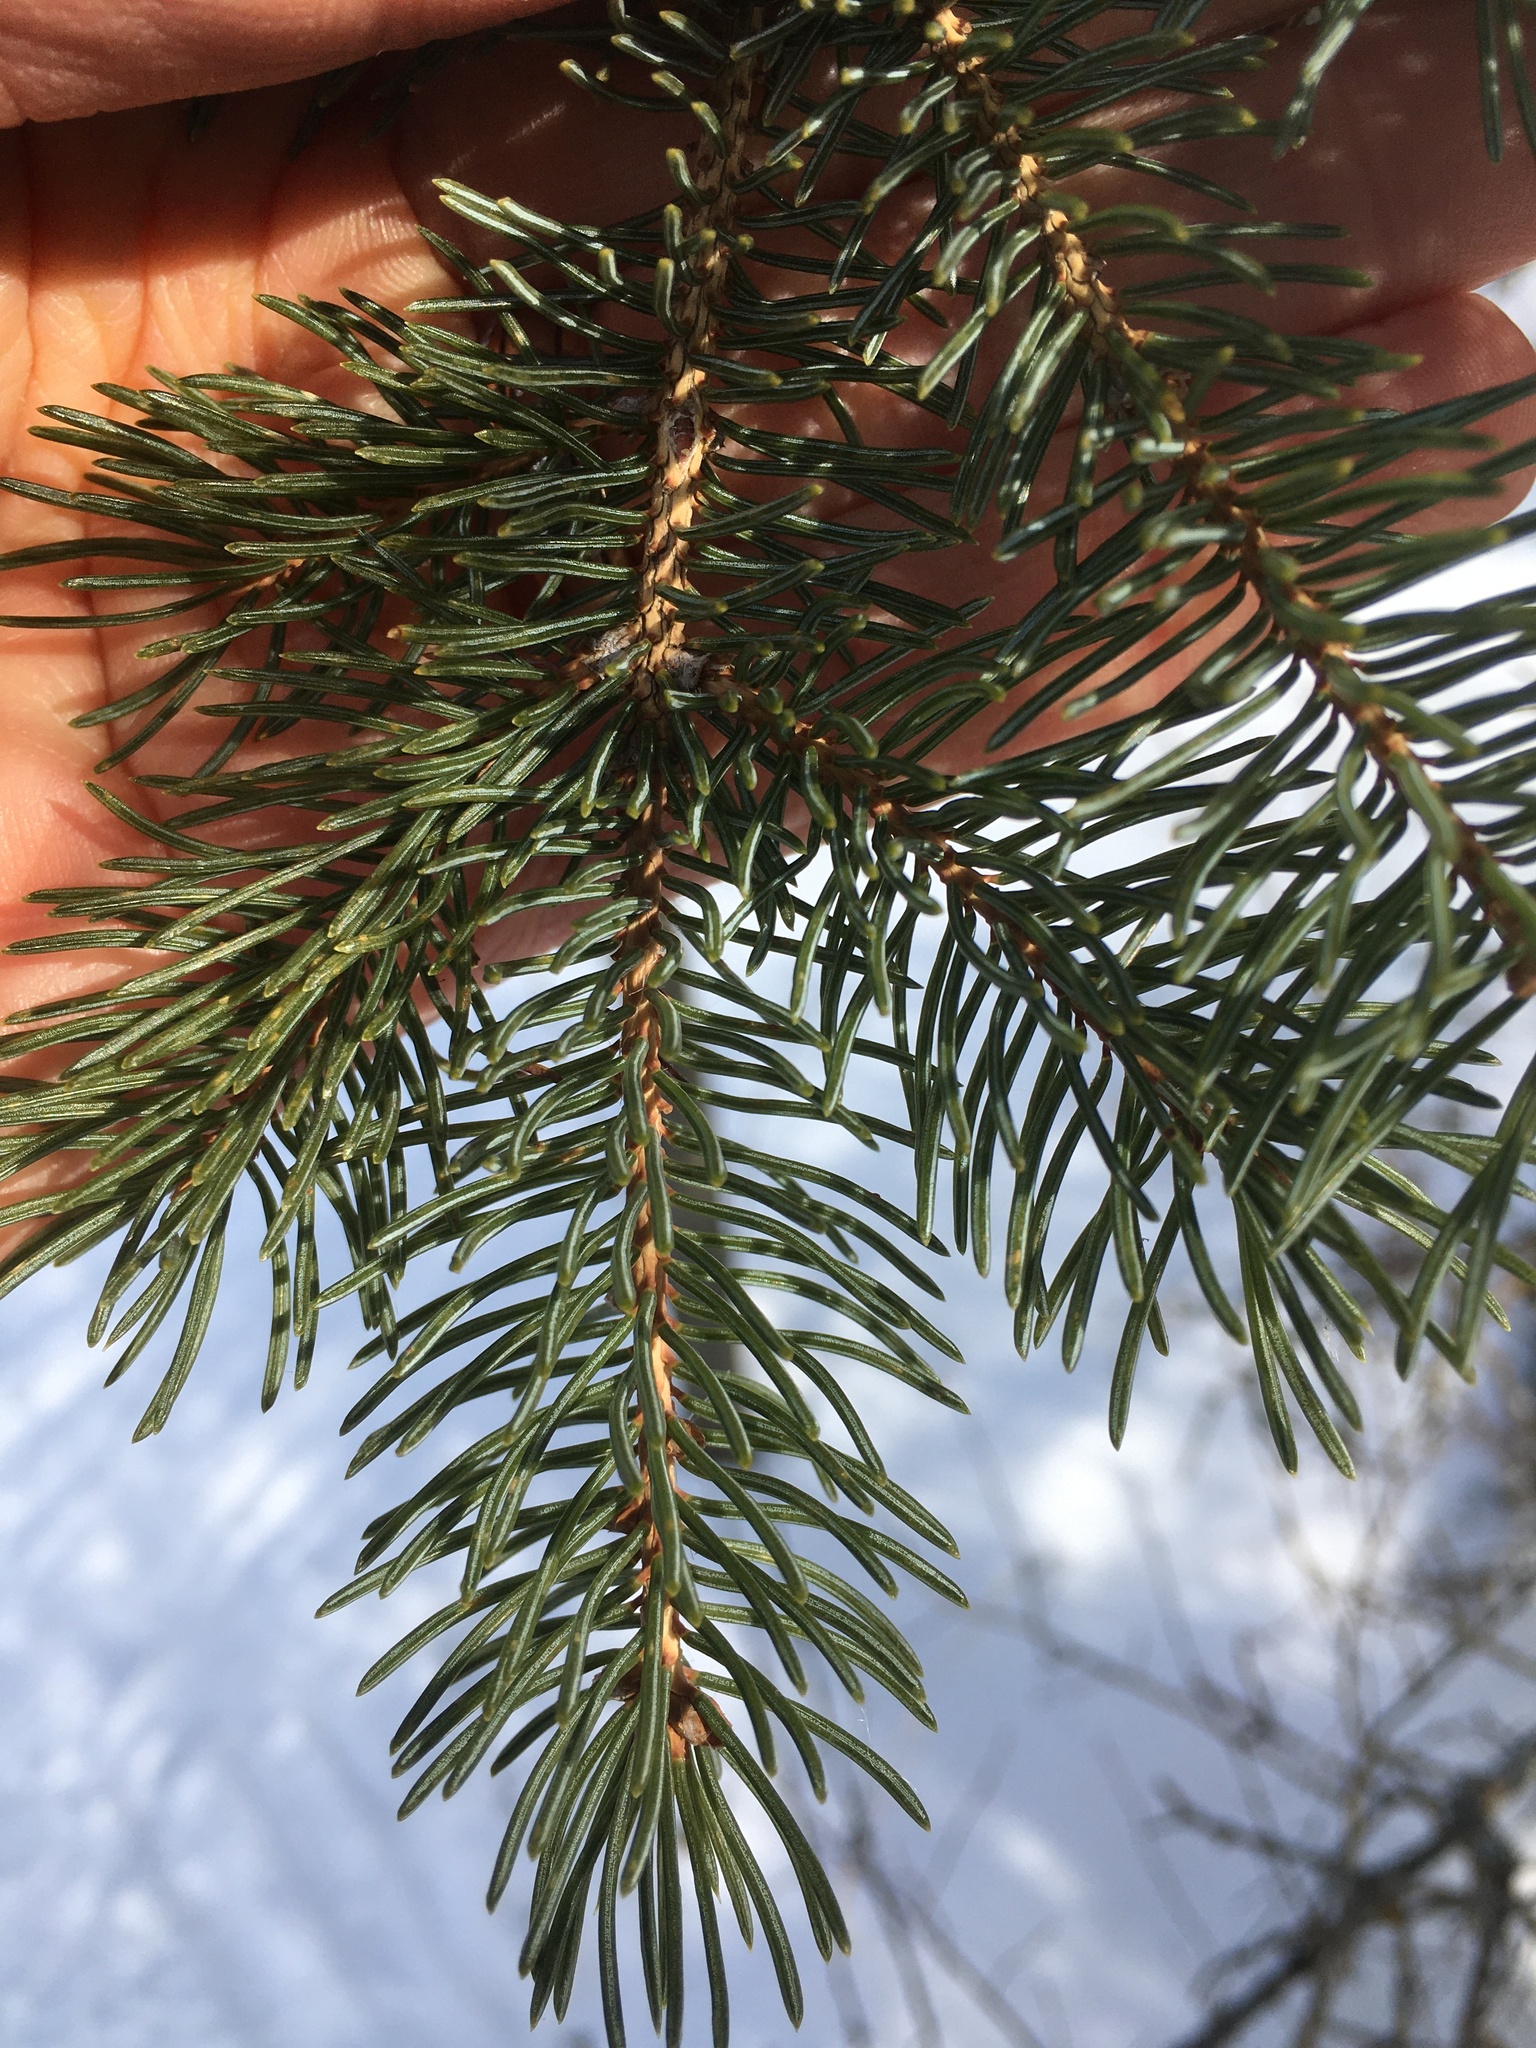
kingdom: Plantae
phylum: Tracheophyta
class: Pinopsida
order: Pinales
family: Pinaceae
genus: Picea
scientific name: Picea glauca
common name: White spruce
